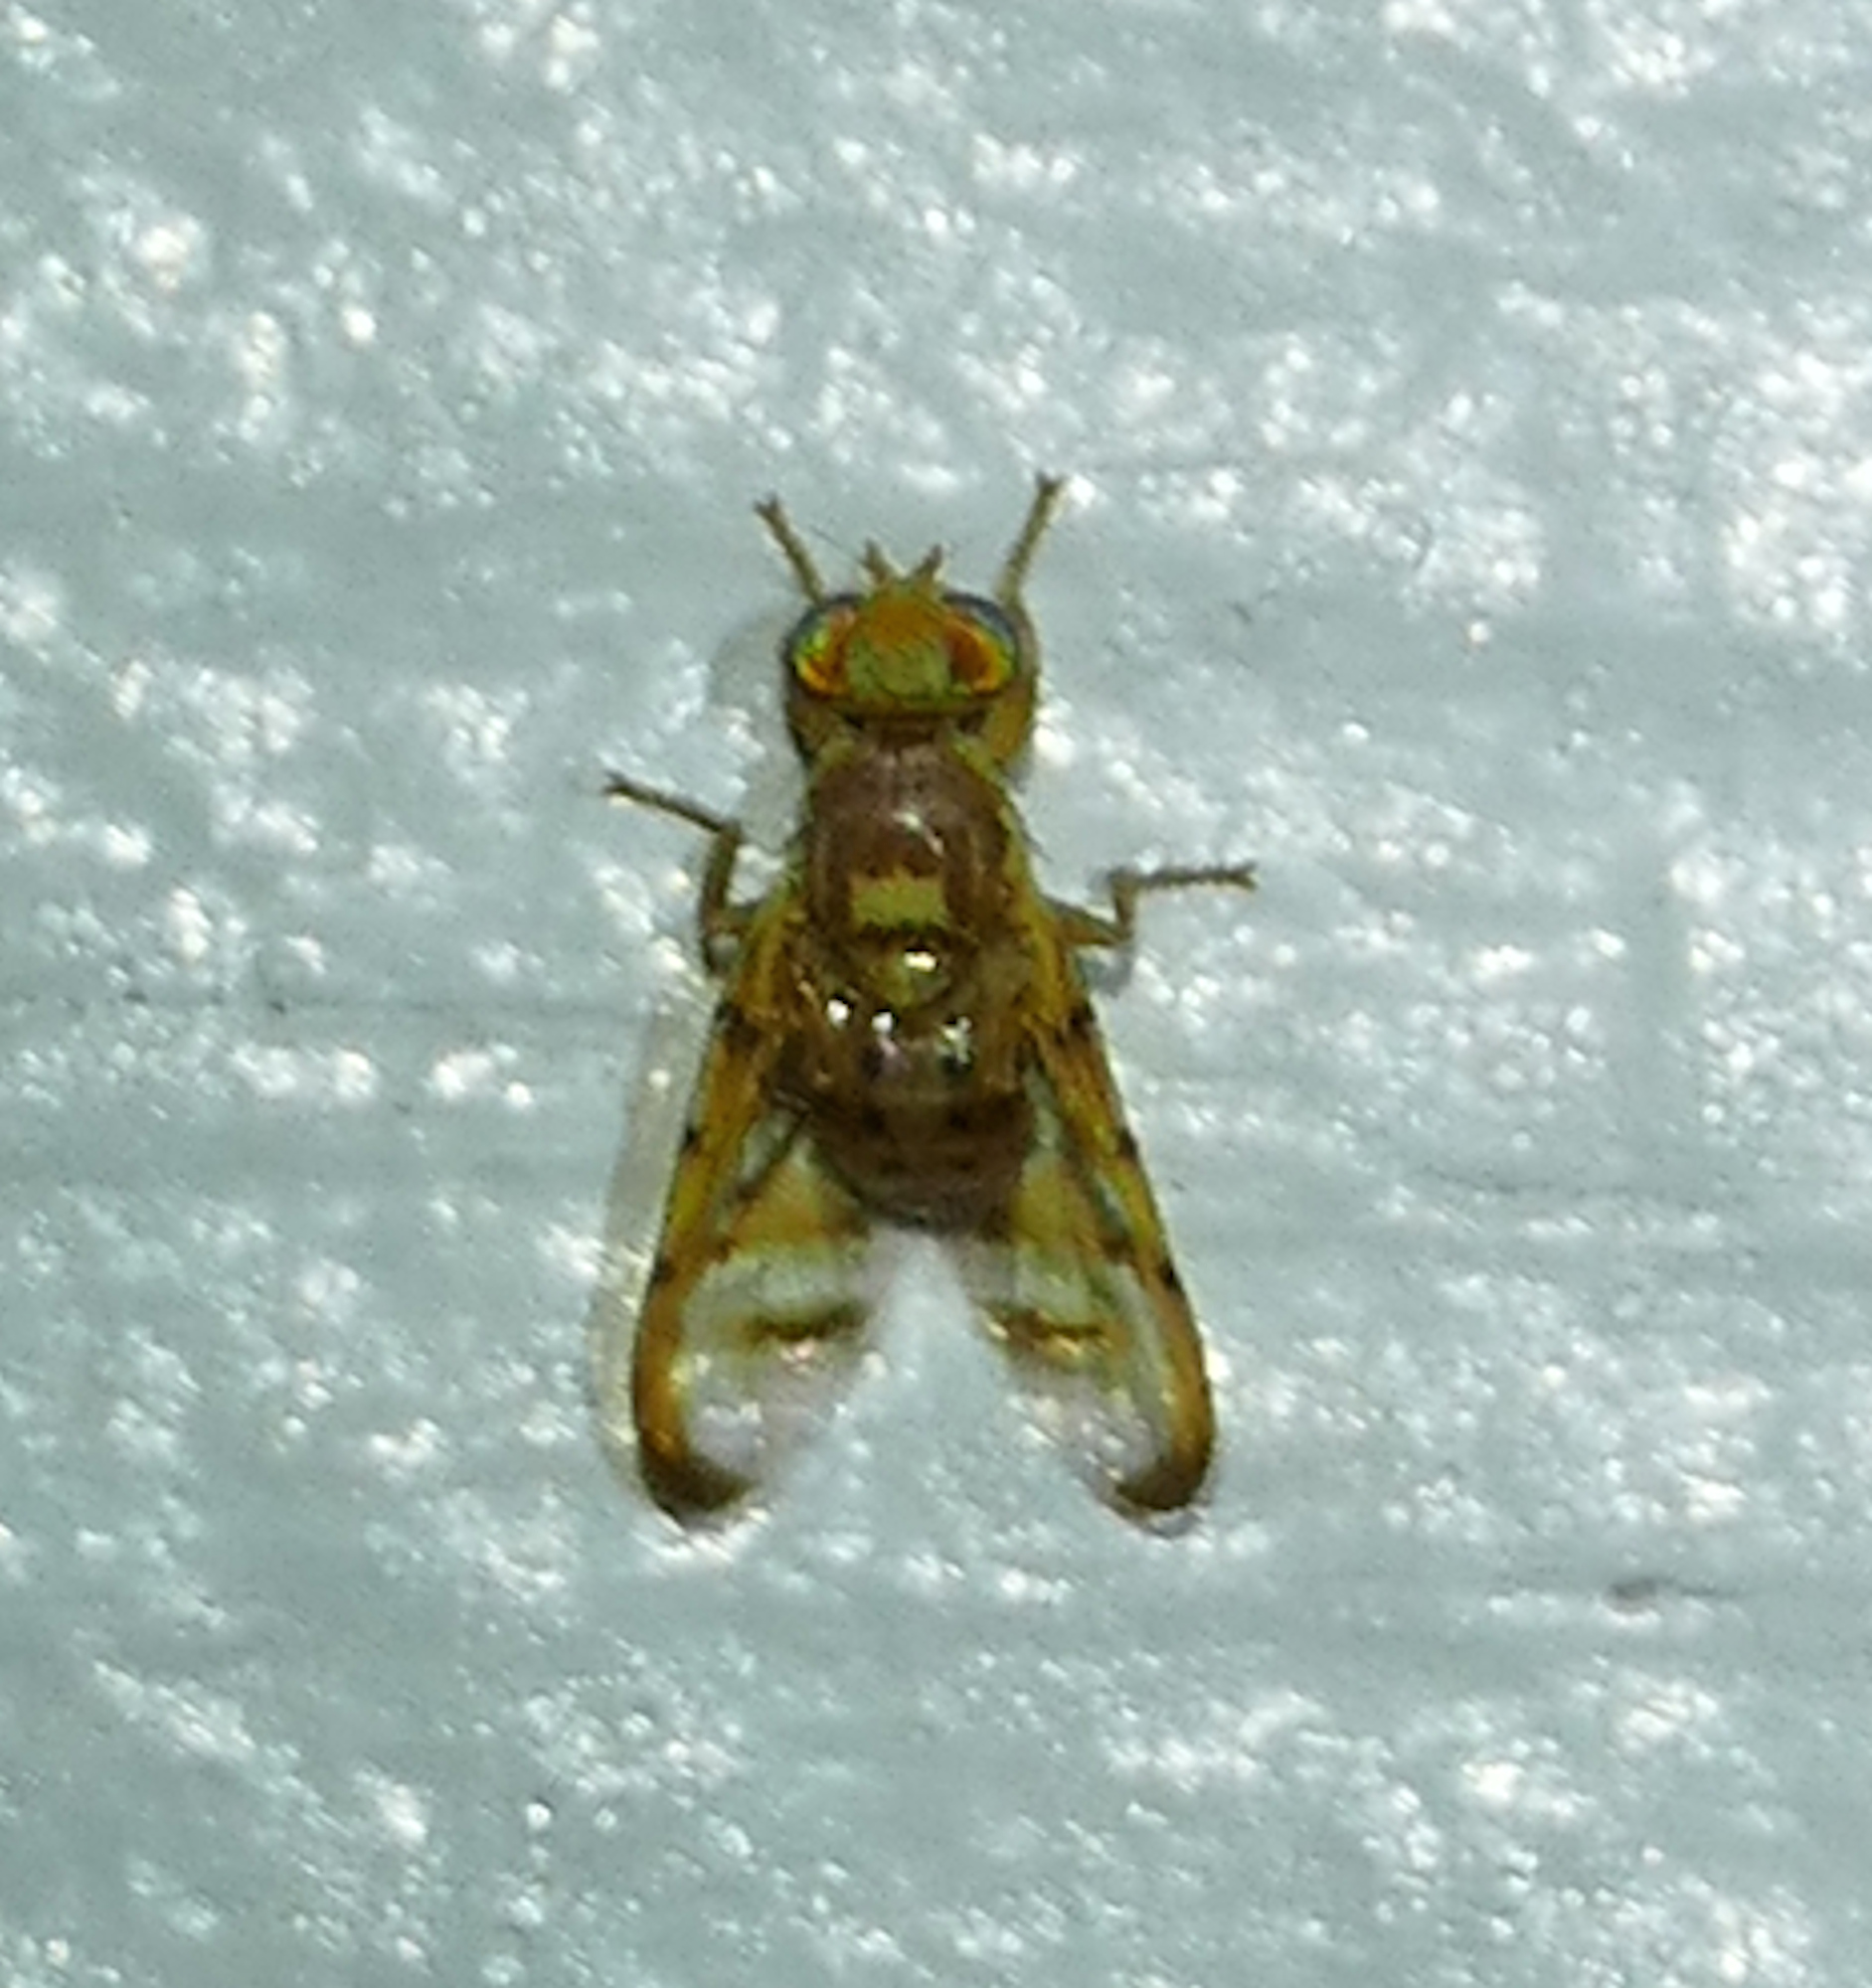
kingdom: Animalia
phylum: Arthropoda
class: Insecta
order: Diptera
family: Tephritidae
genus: Paraterellia
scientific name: Paraterellia varipennis
